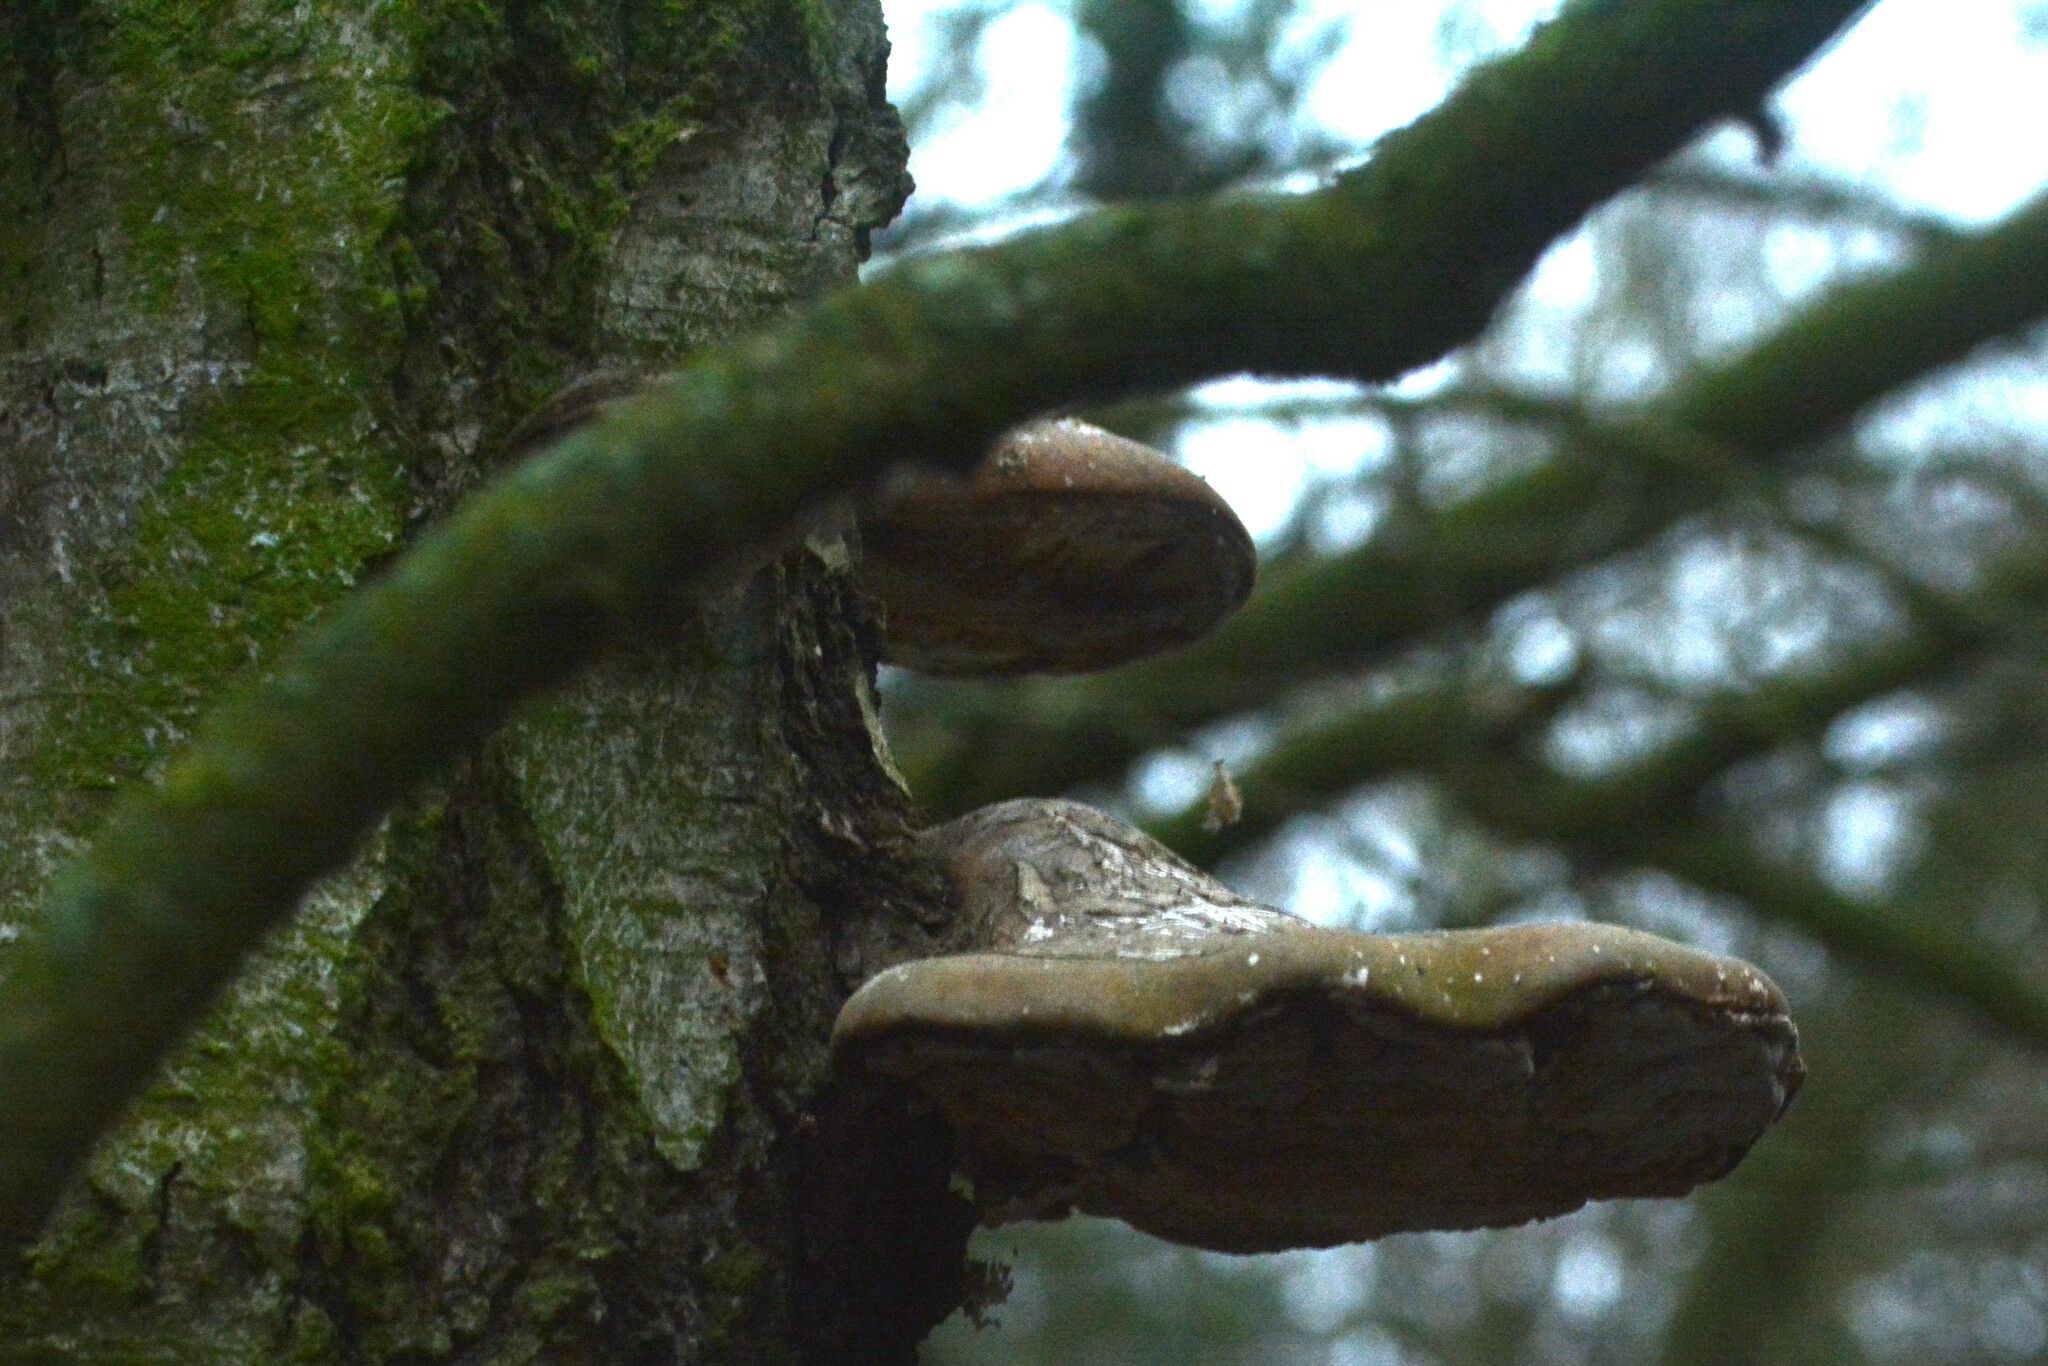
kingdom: Fungi
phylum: Basidiomycota
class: Agaricomycetes
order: Polyporales
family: Fomitopsidaceae
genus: Fomitopsis
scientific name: Fomitopsis betulina
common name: Birch polypore
